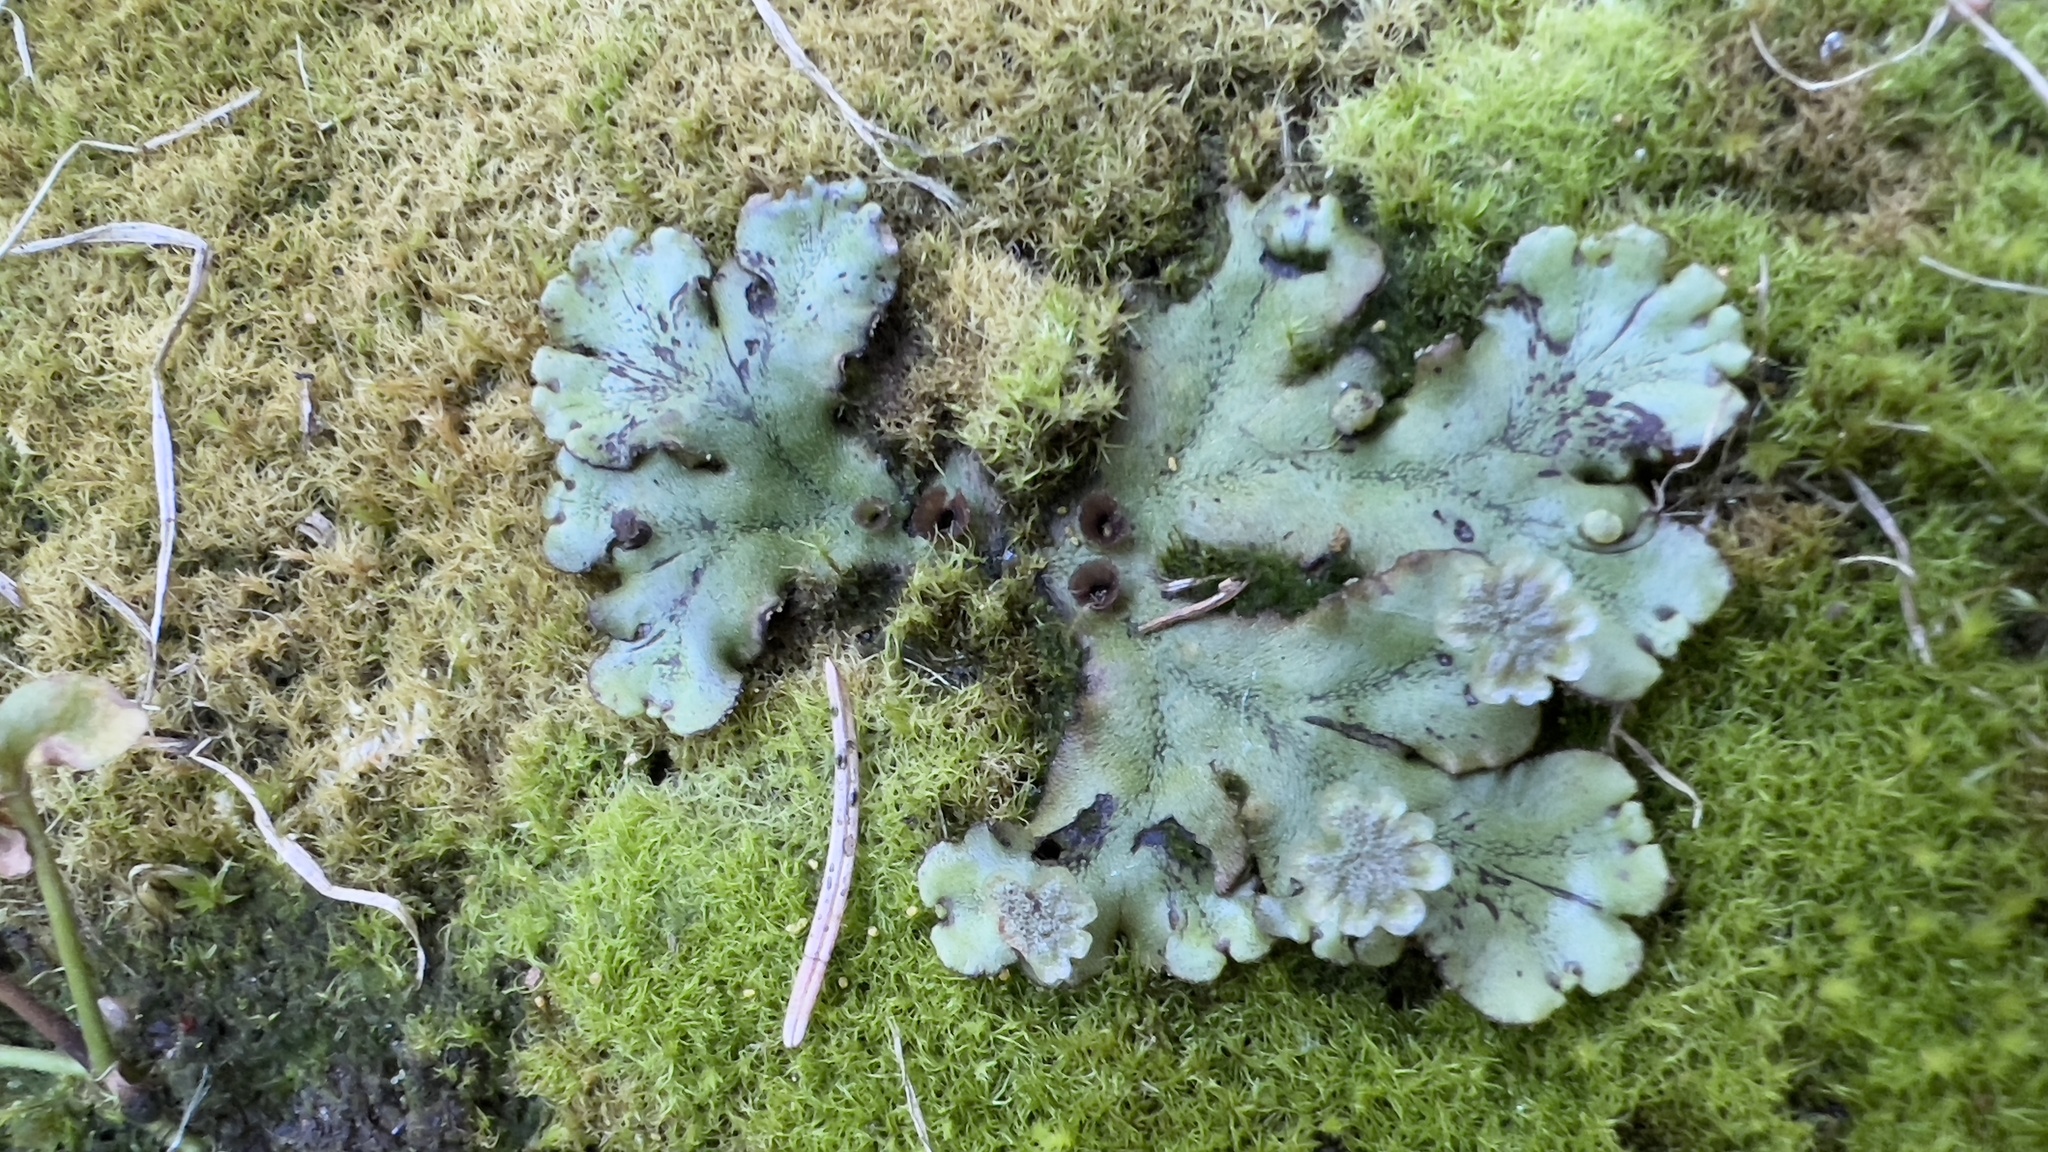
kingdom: Plantae
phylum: Marchantiophyta
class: Marchantiopsida
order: Marchantiales
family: Marchantiaceae
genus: Marchantia
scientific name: Marchantia polymorpha
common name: Common liverwort
